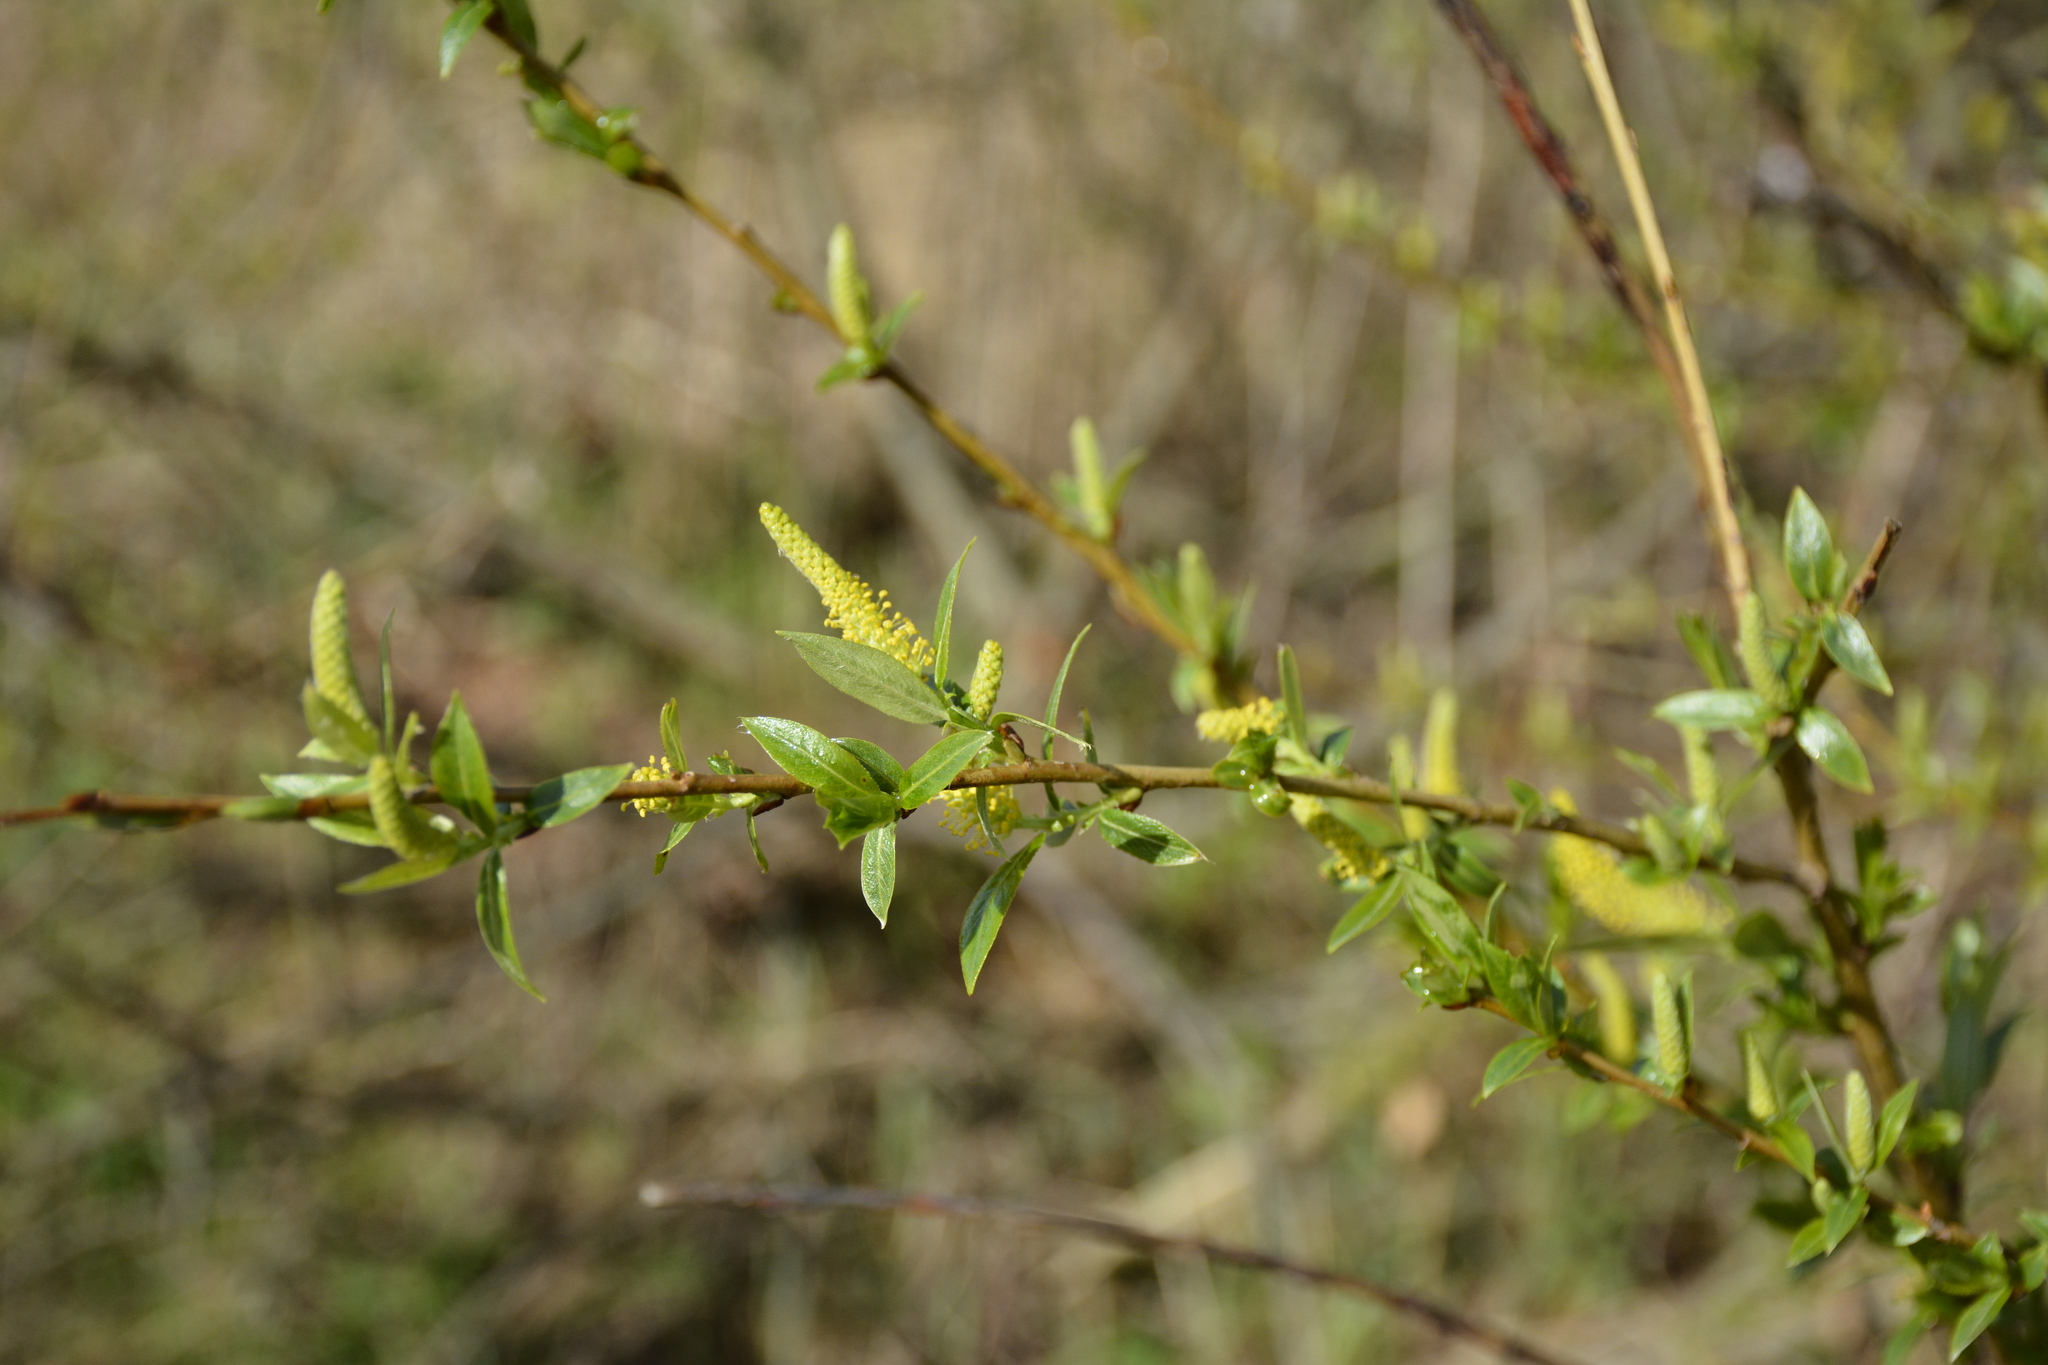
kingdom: Plantae
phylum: Tracheophyta
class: Magnoliopsida
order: Malpighiales
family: Salicaceae
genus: Salix
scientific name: Salix triandra
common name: Almond willow
